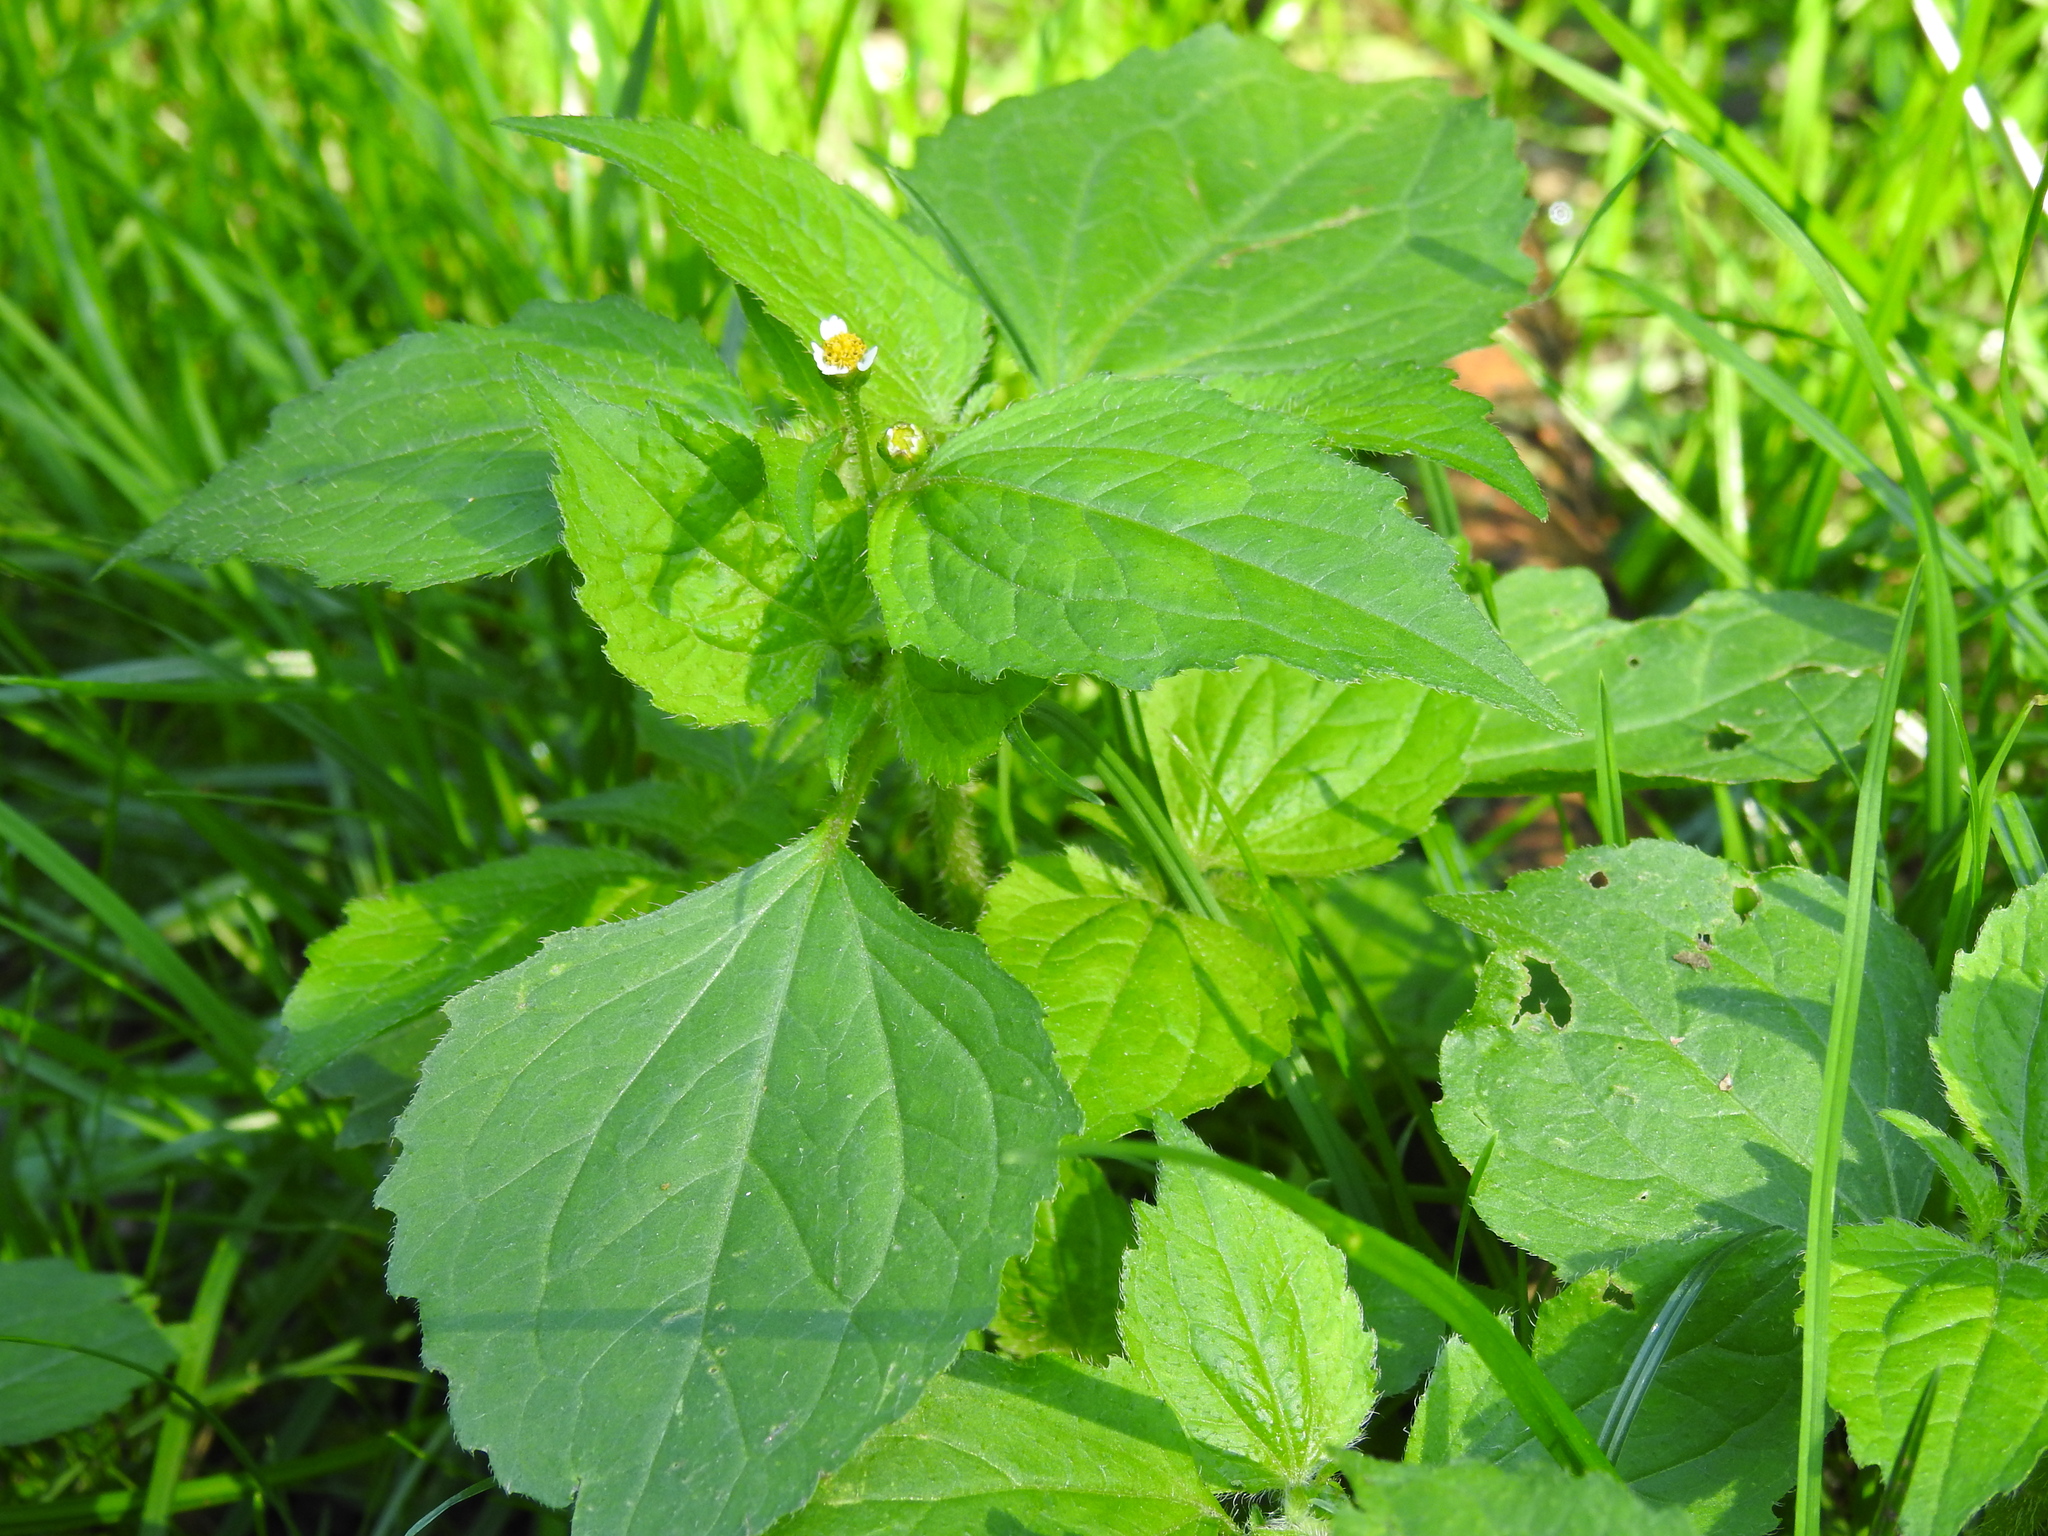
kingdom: Plantae
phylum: Tracheophyta
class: Magnoliopsida
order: Asterales
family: Asteraceae
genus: Galinsoga
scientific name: Galinsoga quadriradiata
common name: Shaggy soldier
